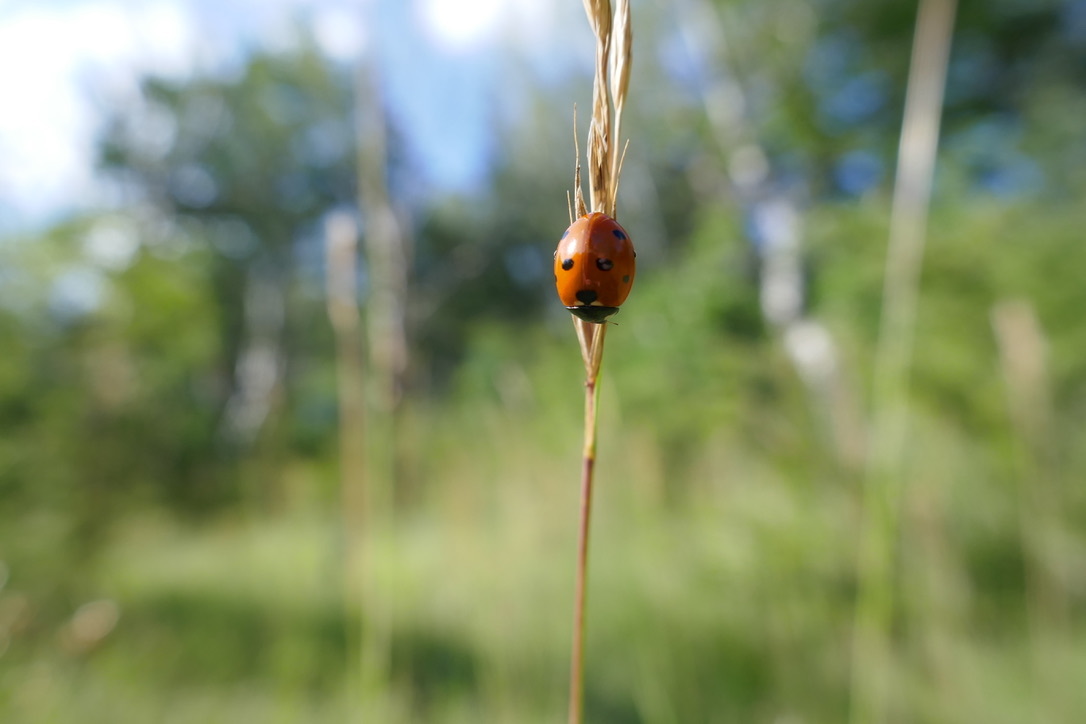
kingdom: Animalia
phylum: Arthropoda
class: Insecta
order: Coleoptera
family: Coccinellidae
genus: Coccinella
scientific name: Coccinella septempunctata
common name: Sevenspotted lady beetle
